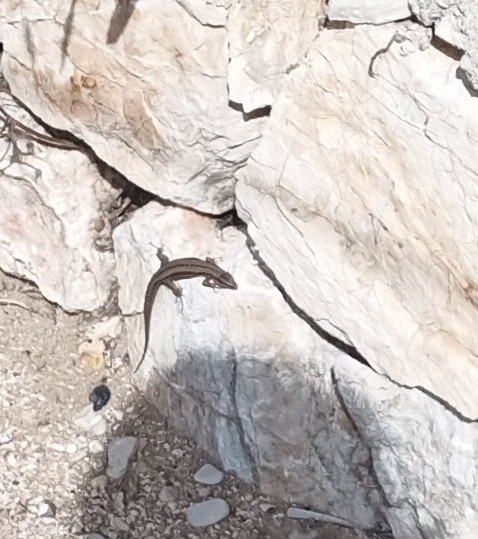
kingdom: Animalia
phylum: Chordata
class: Squamata
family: Lacertidae
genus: Podarcis
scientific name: Podarcis muralis
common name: Common wall lizard
